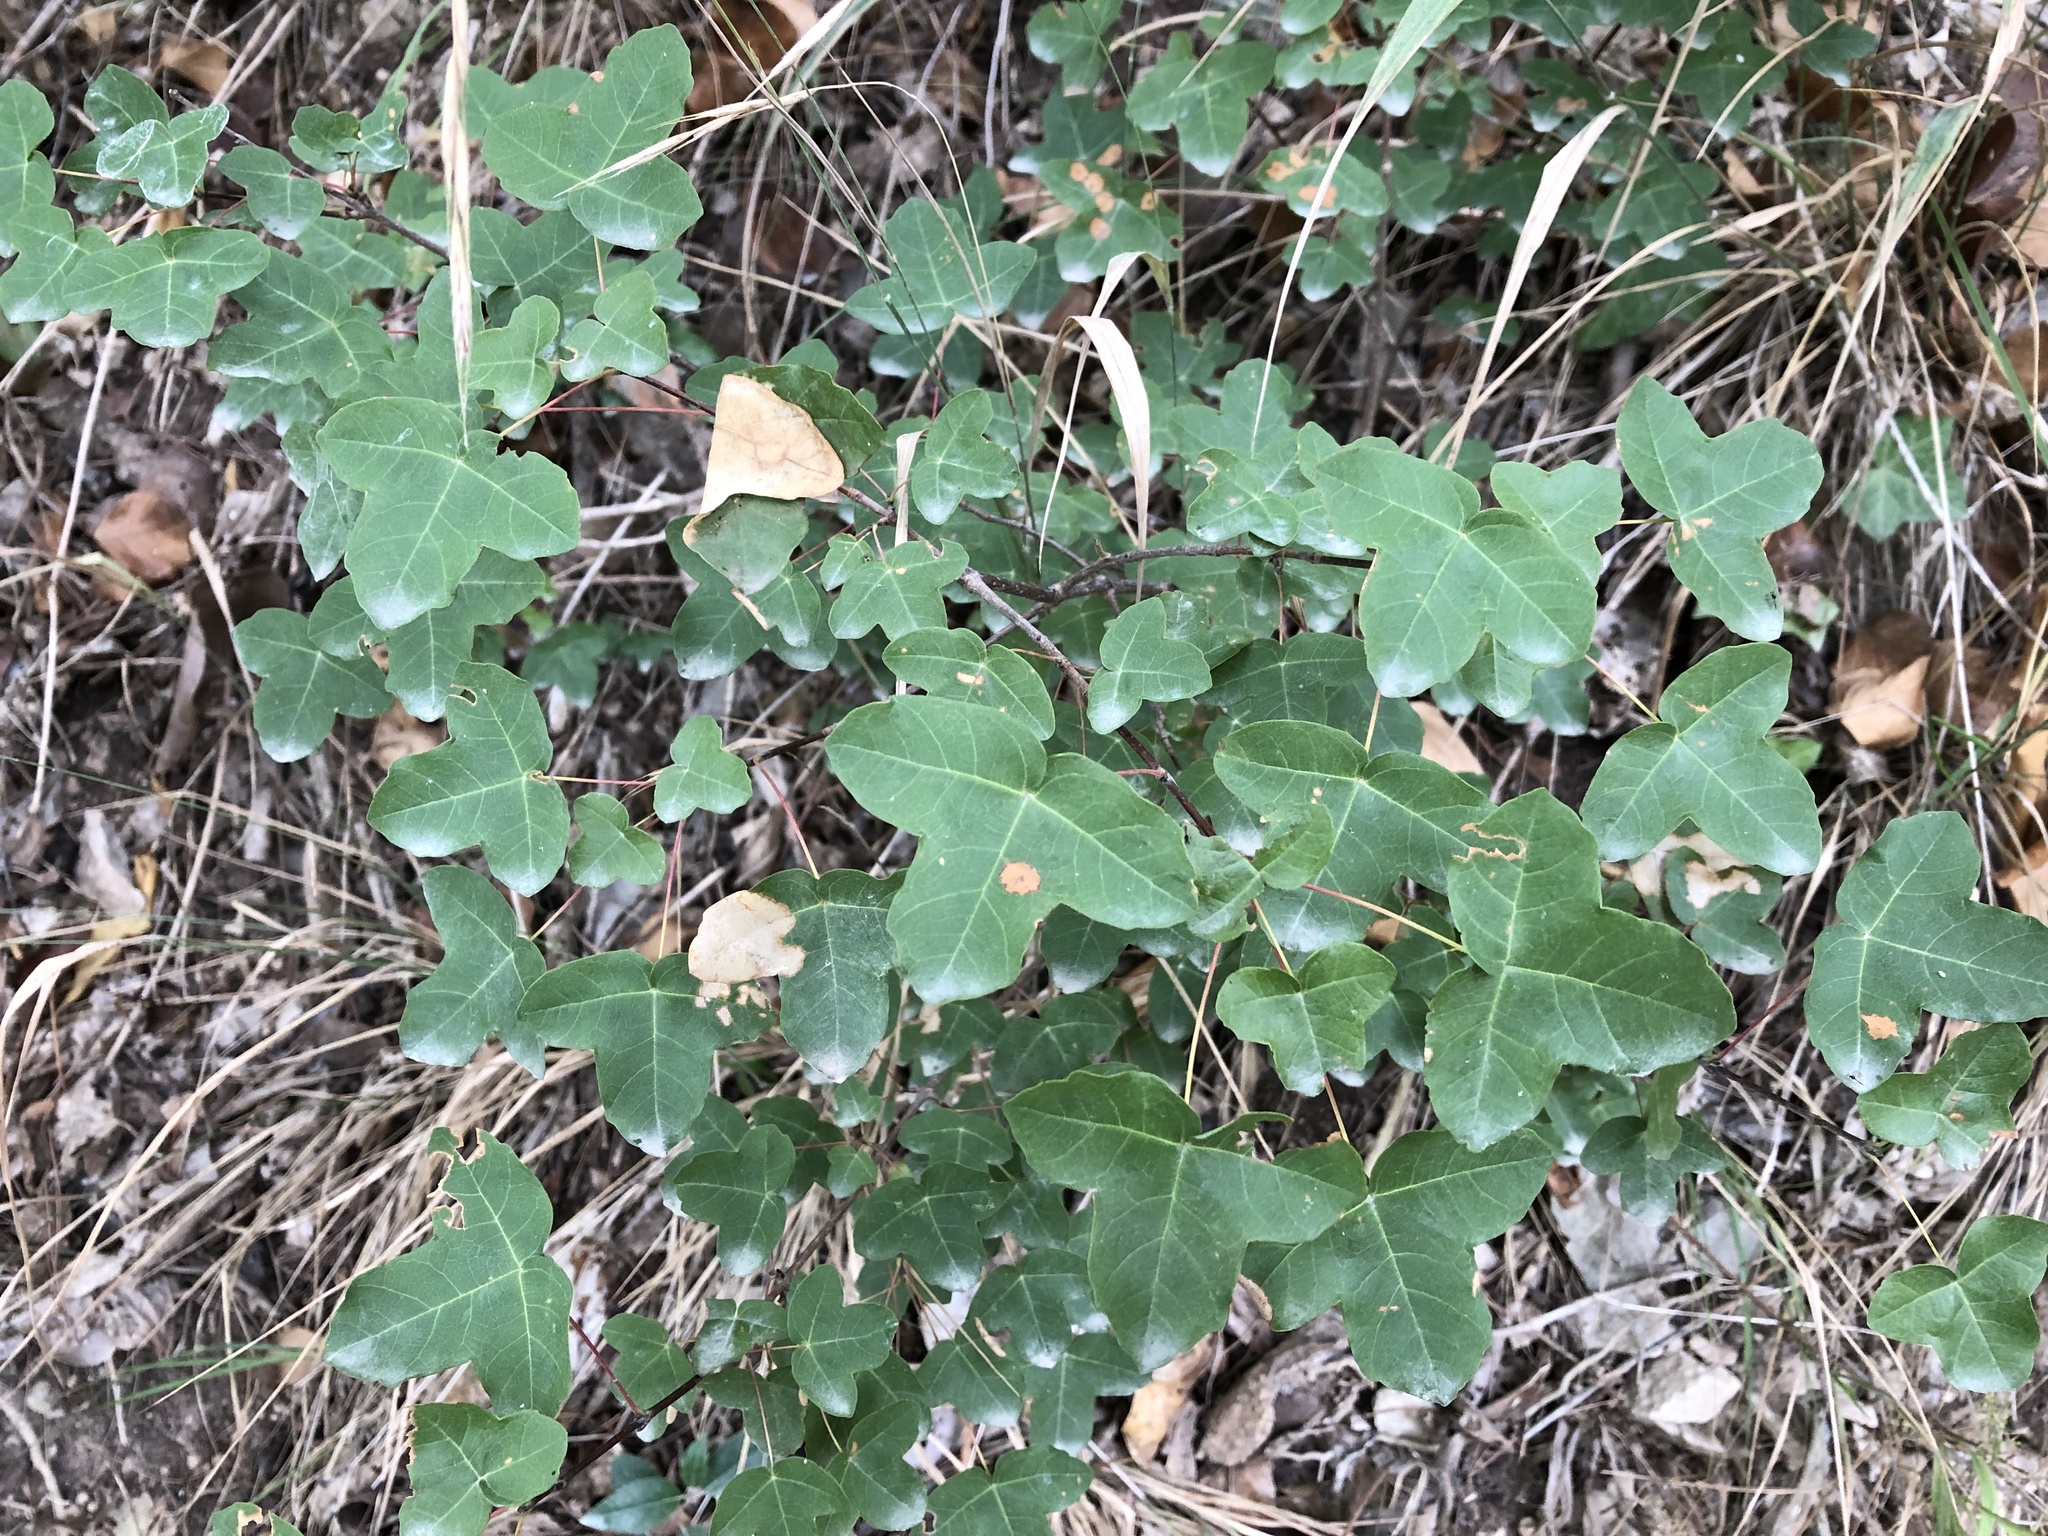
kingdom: Plantae
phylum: Tracheophyta
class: Magnoliopsida
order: Sapindales
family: Sapindaceae
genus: Acer
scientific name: Acer monspessulanum
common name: Montpellier maple
